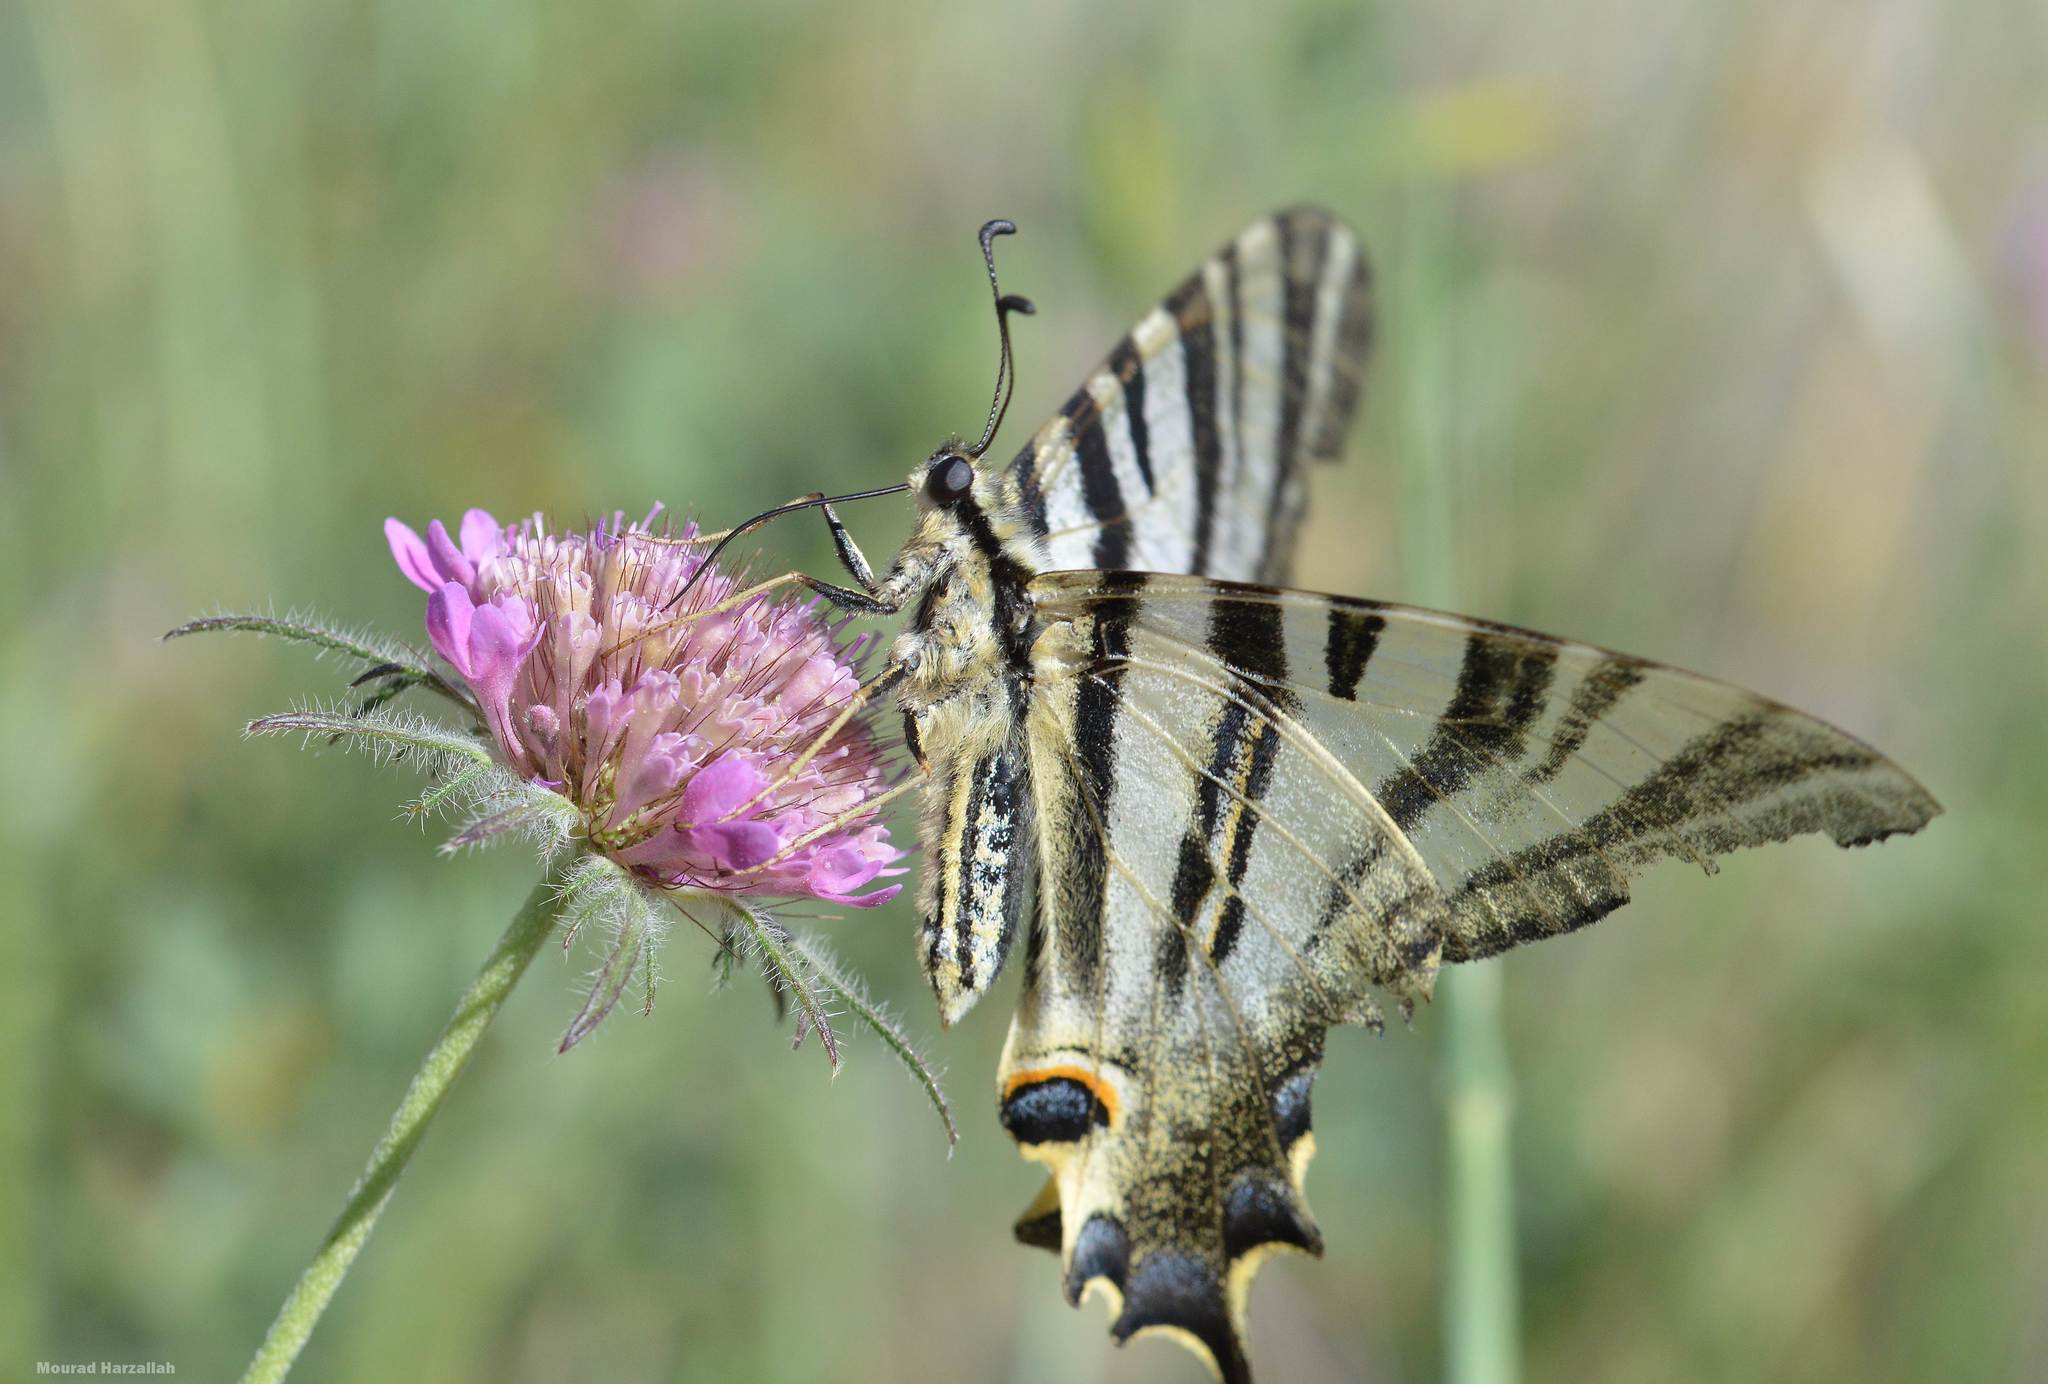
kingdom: Animalia
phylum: Arthropoda
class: Insecta
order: Lepidoptera
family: Papilionidae
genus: Iphiclides
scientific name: Iphiclides feisthamelii
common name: Iberian scarce swallowtail
